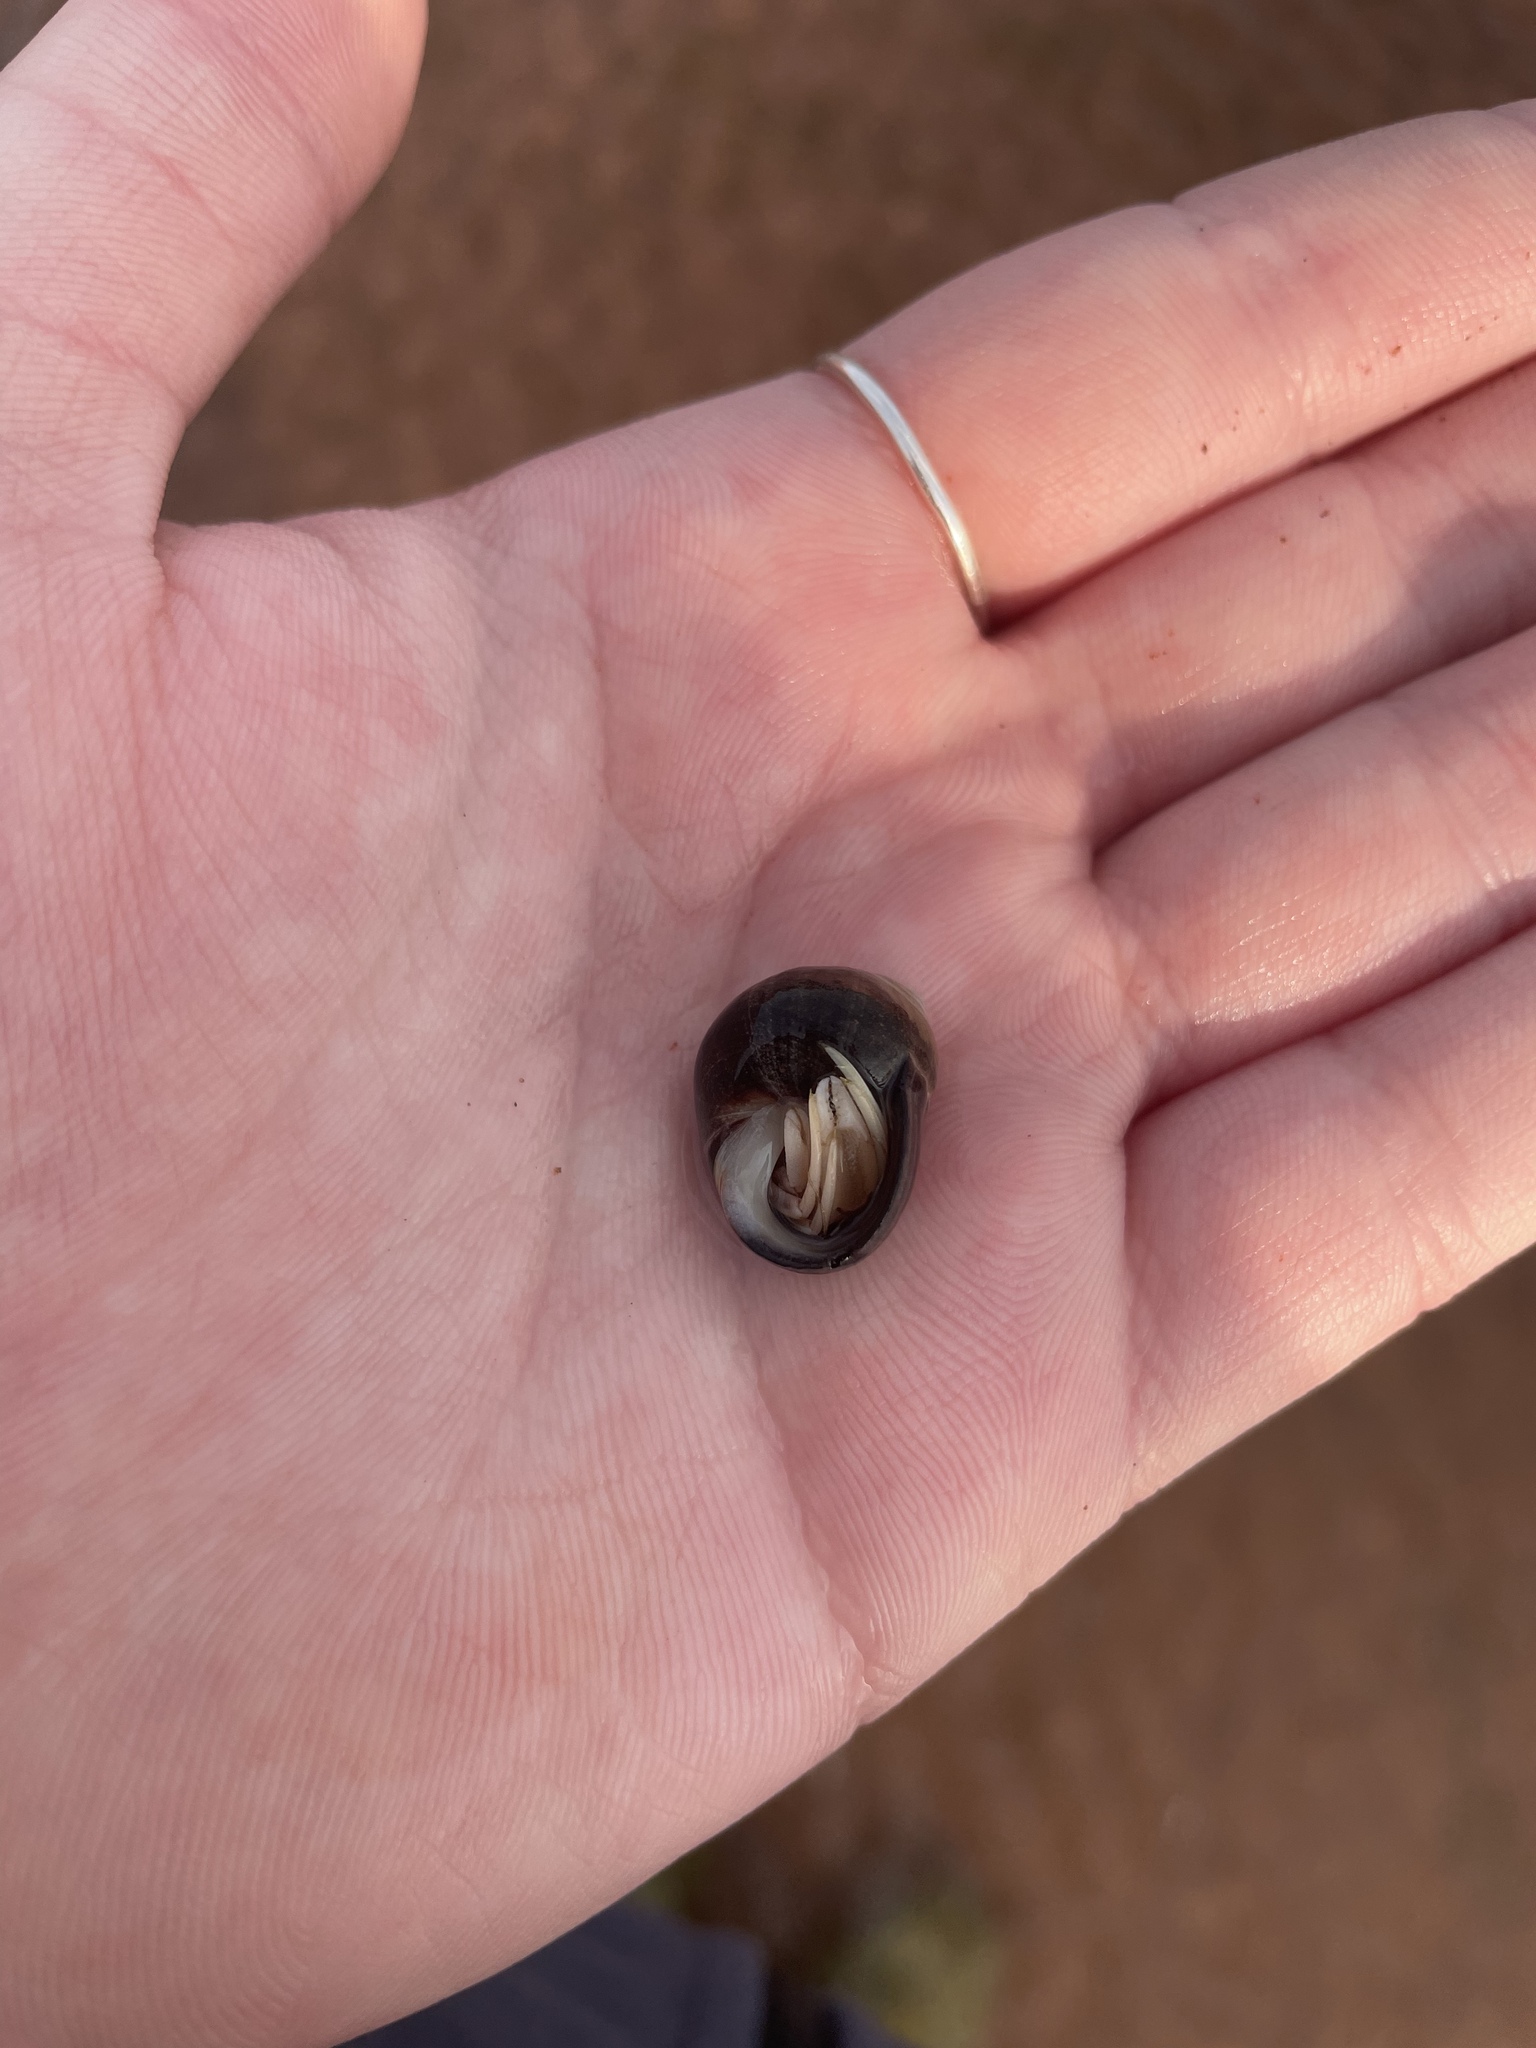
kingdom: Animalia
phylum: Arthropoda
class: Malacostraca
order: Decapoda
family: Paguridae
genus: Pagurus
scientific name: Pagurus longicarpus
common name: Long-armed hermit crab
